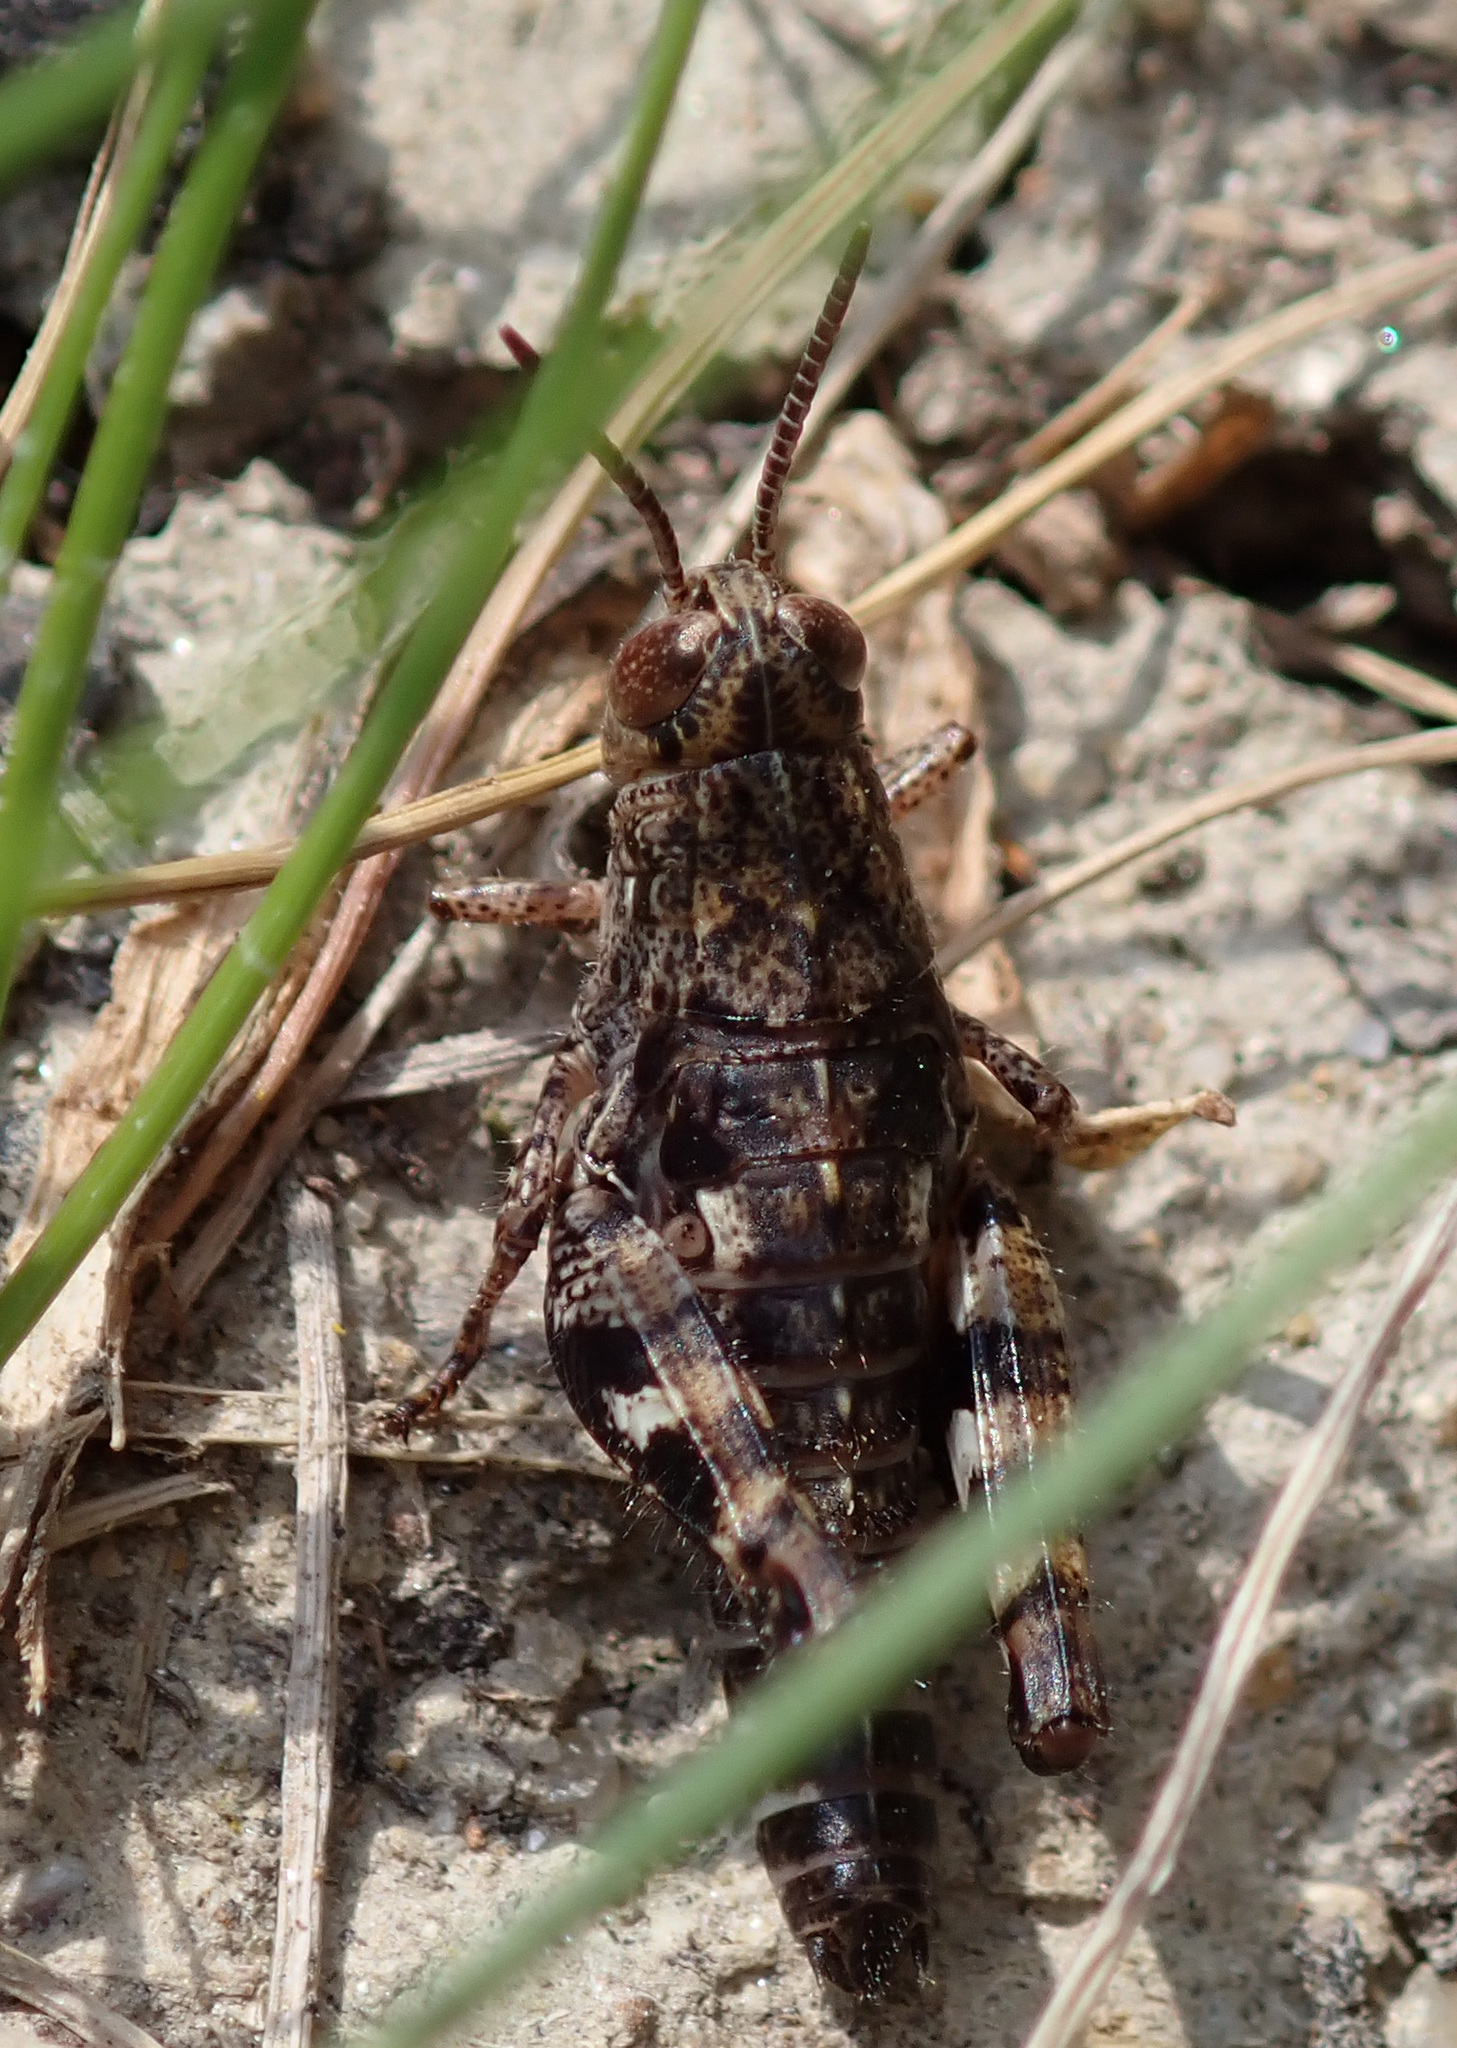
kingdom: Animalia
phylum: Arthropoda
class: Insecta
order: Orthoptera
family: Acrididae
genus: Calliptamus
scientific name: Calliptamus italicus
